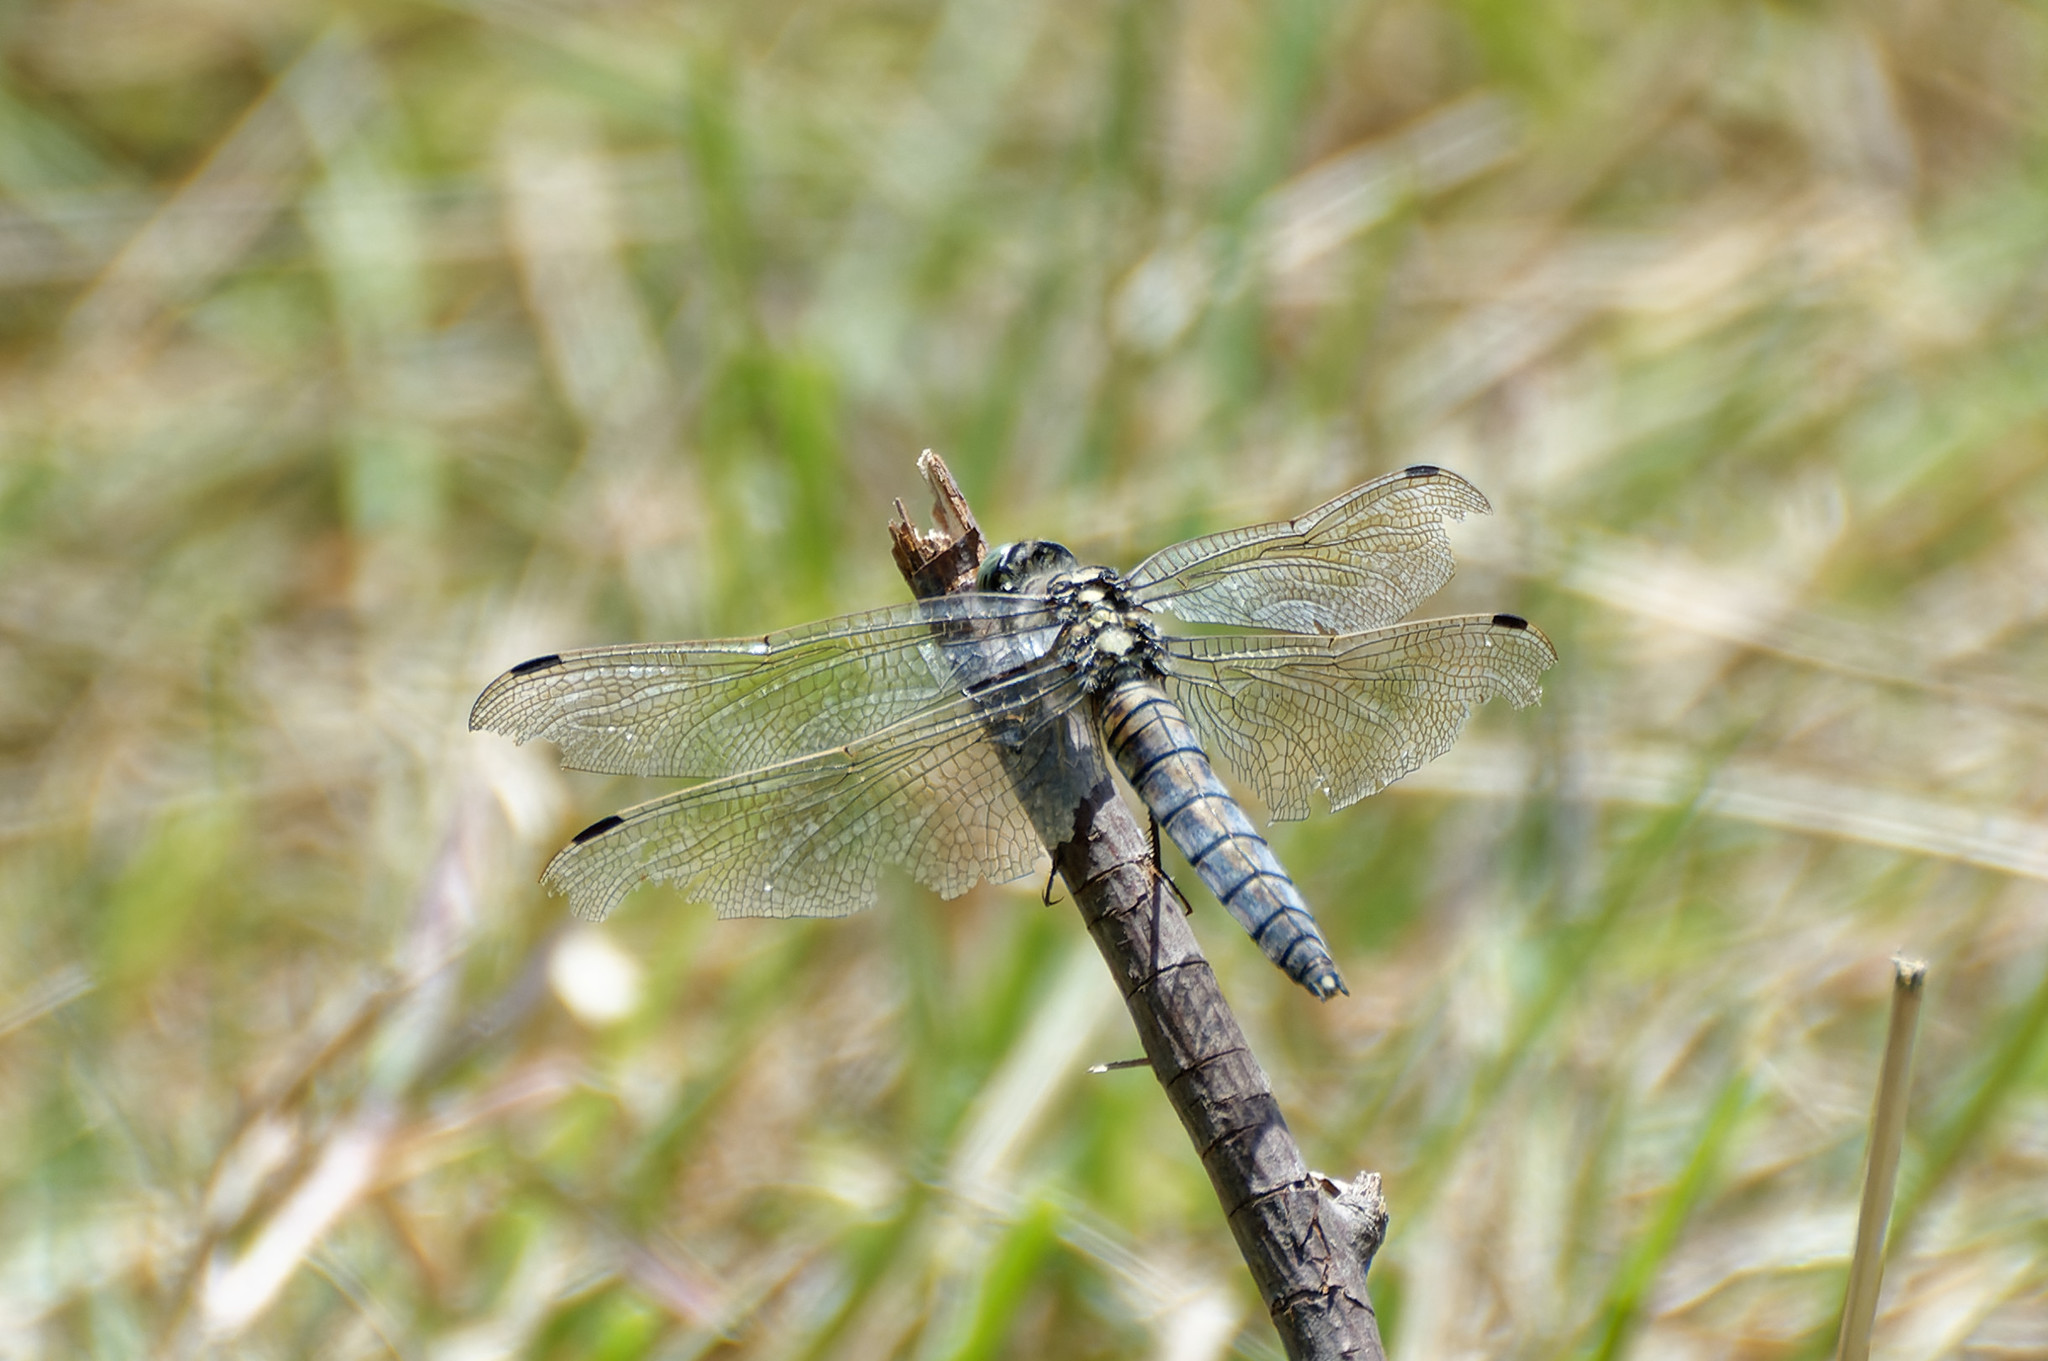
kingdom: Animalia
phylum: Arthropoda
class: Insecta
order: Odonata
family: Libellulidae
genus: Orthetrum
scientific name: Orthetrum cancellatum
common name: Black-tailed skimmer
